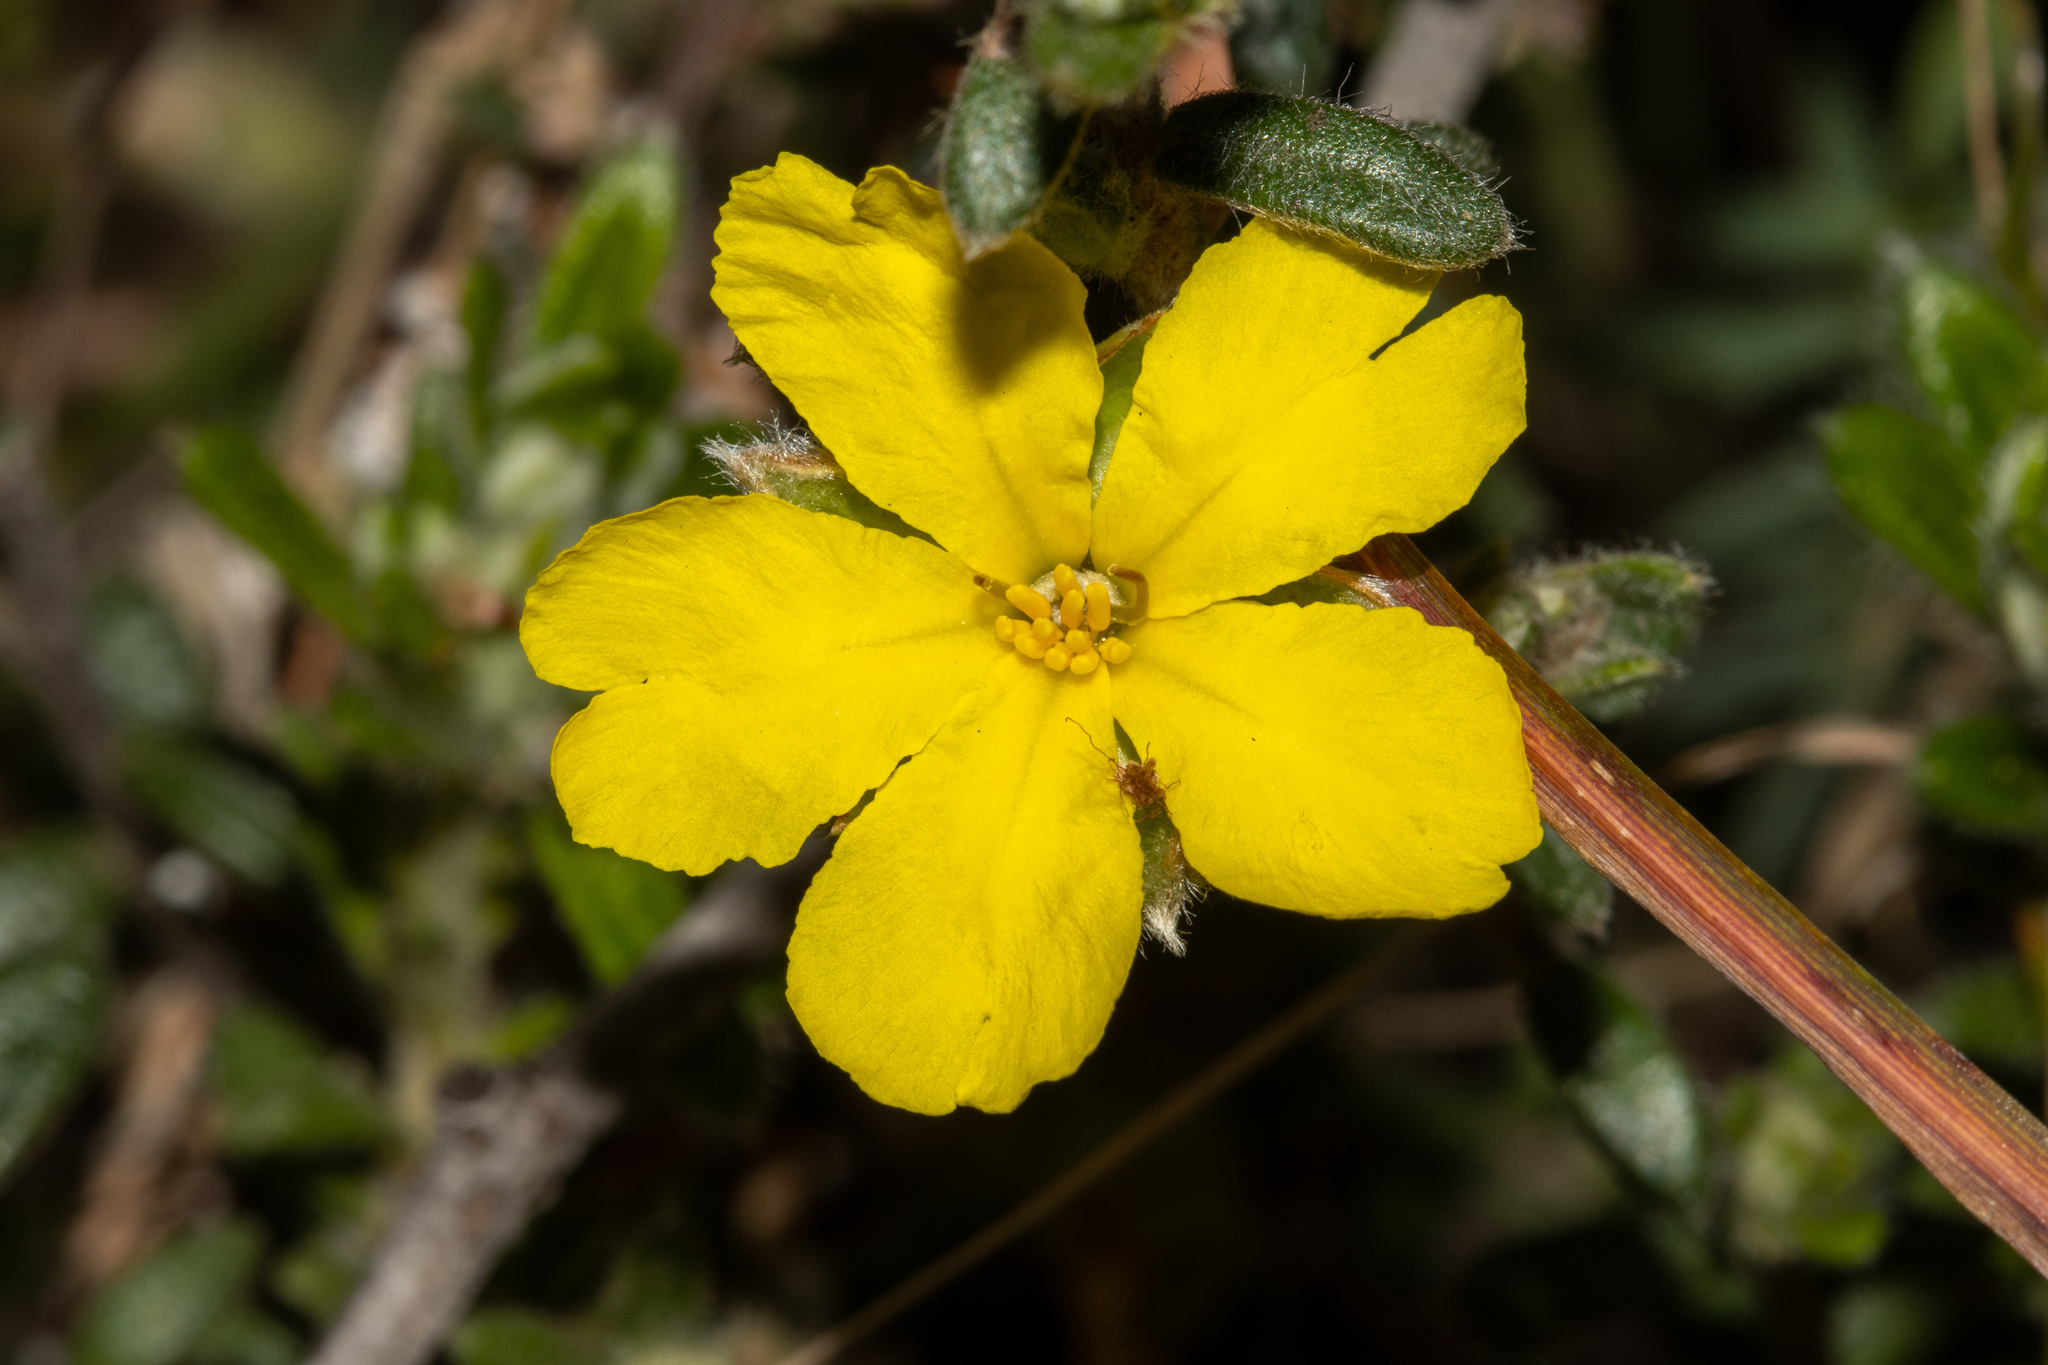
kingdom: Plantae
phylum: Tracheophyta
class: Magnoliopsida
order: Dilleniales
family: Dilleniaceae
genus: Hibbertia
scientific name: Hibbertia sericea
